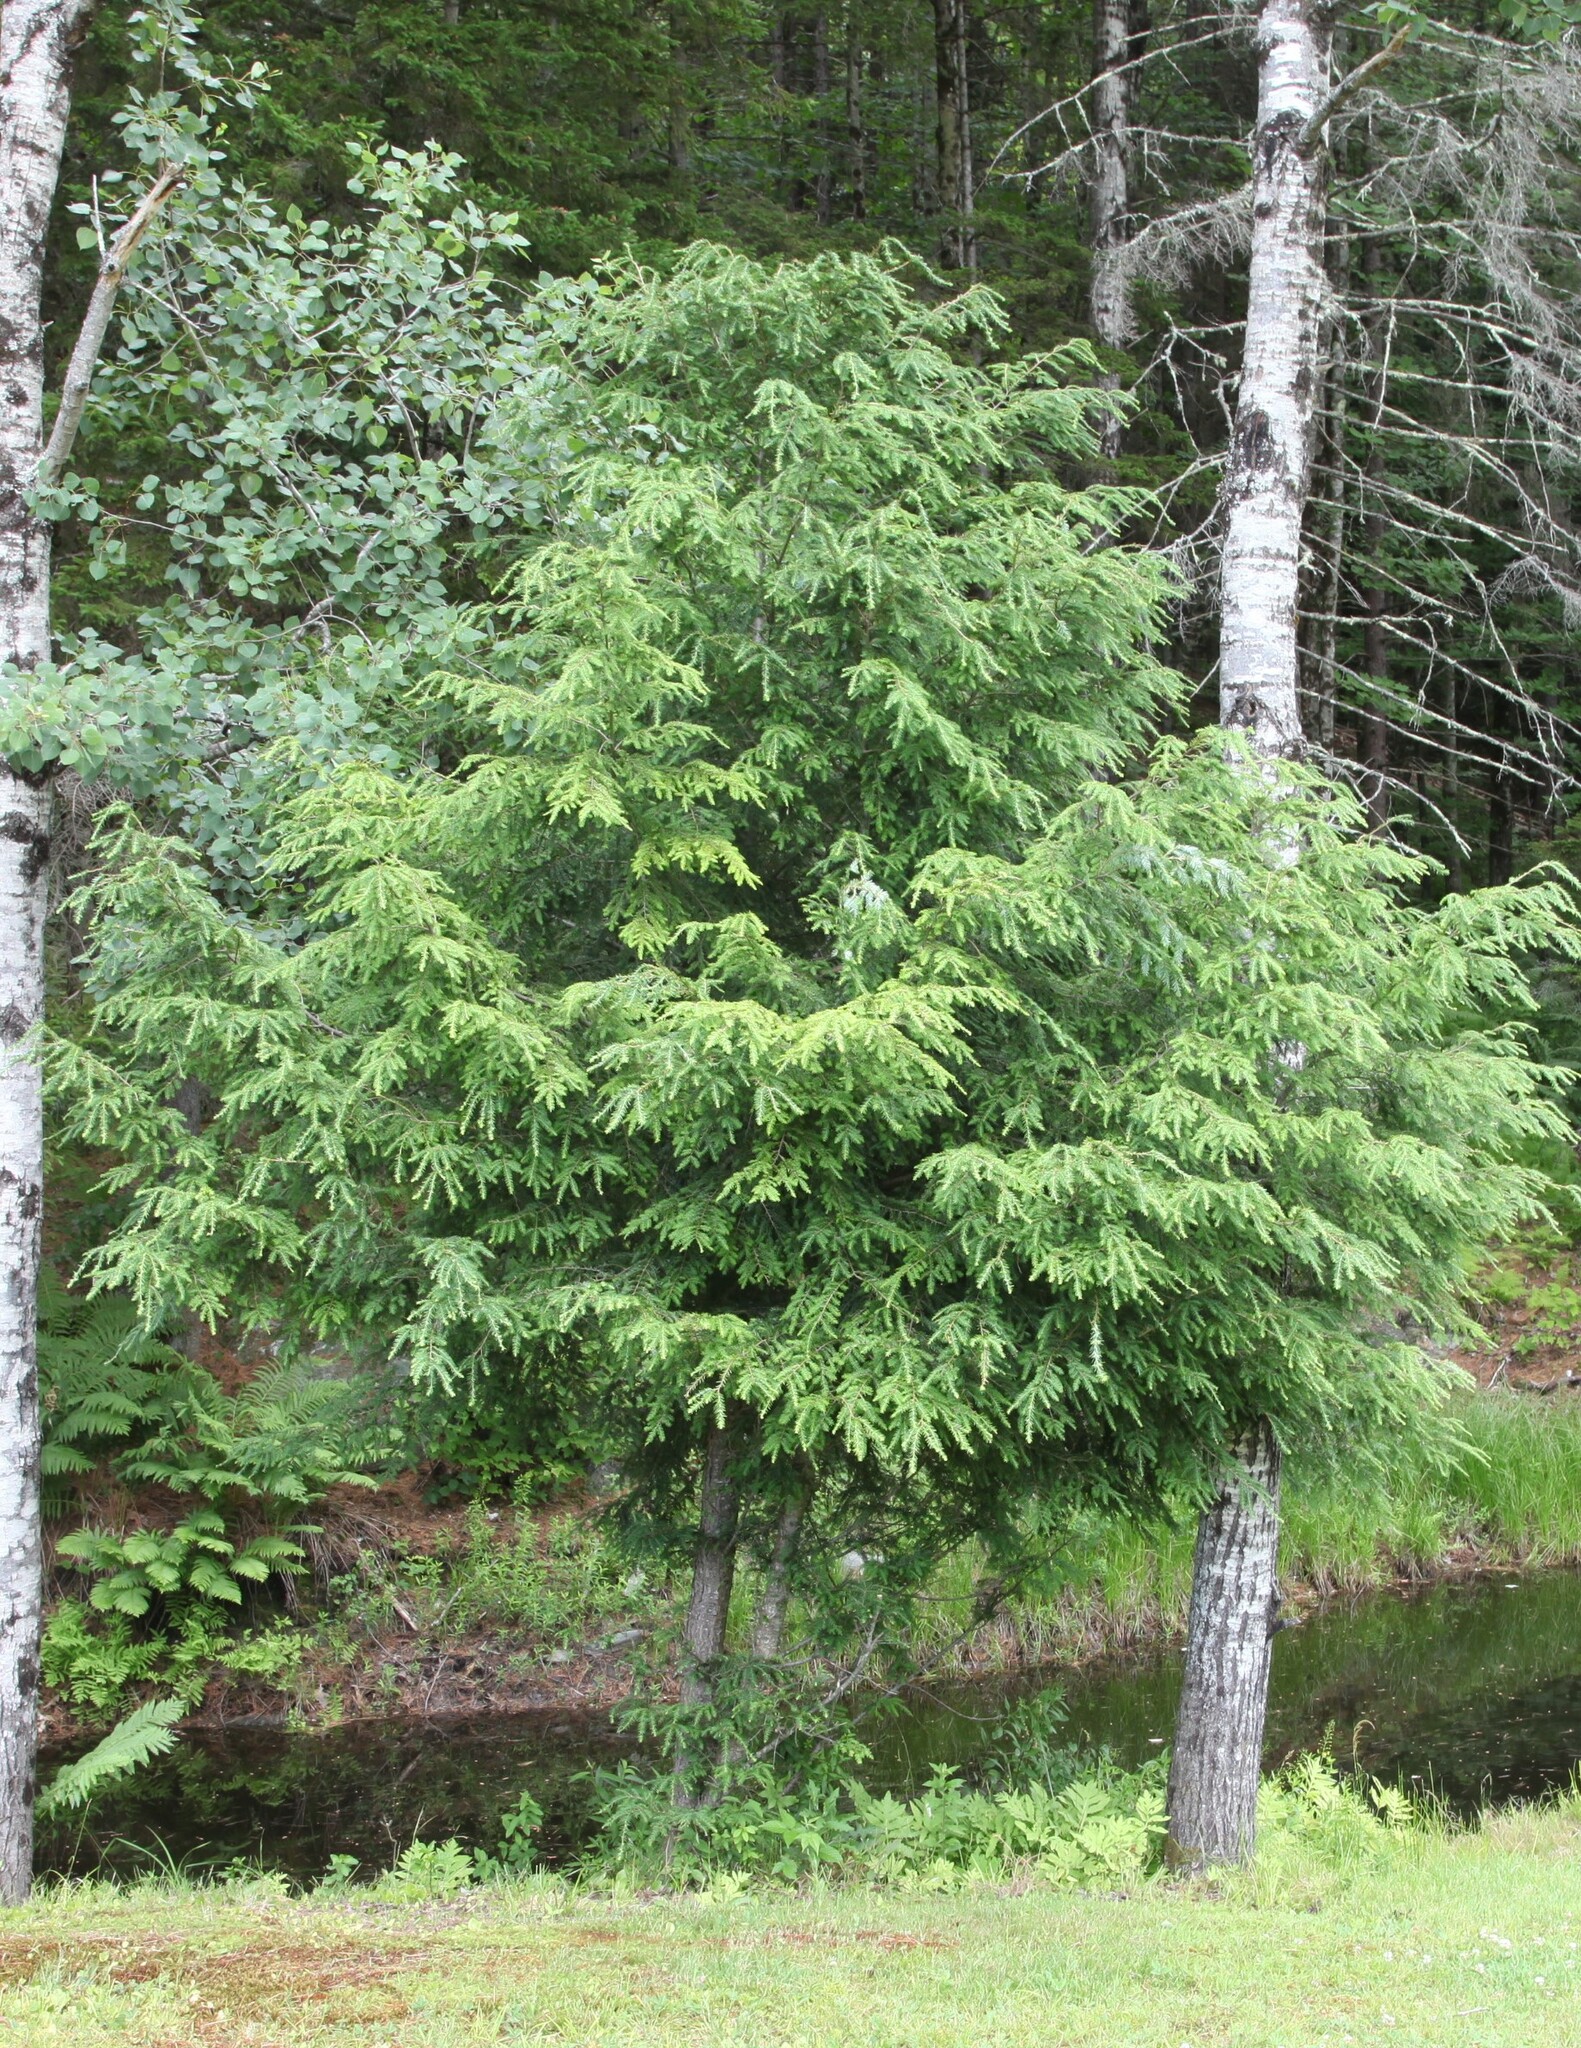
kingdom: Plantae
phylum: Tracheophyta
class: Pinopsida
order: Pinales
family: Pinaceae
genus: Tsuga
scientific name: Tsuga canadensis
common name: Eastern hemlock
